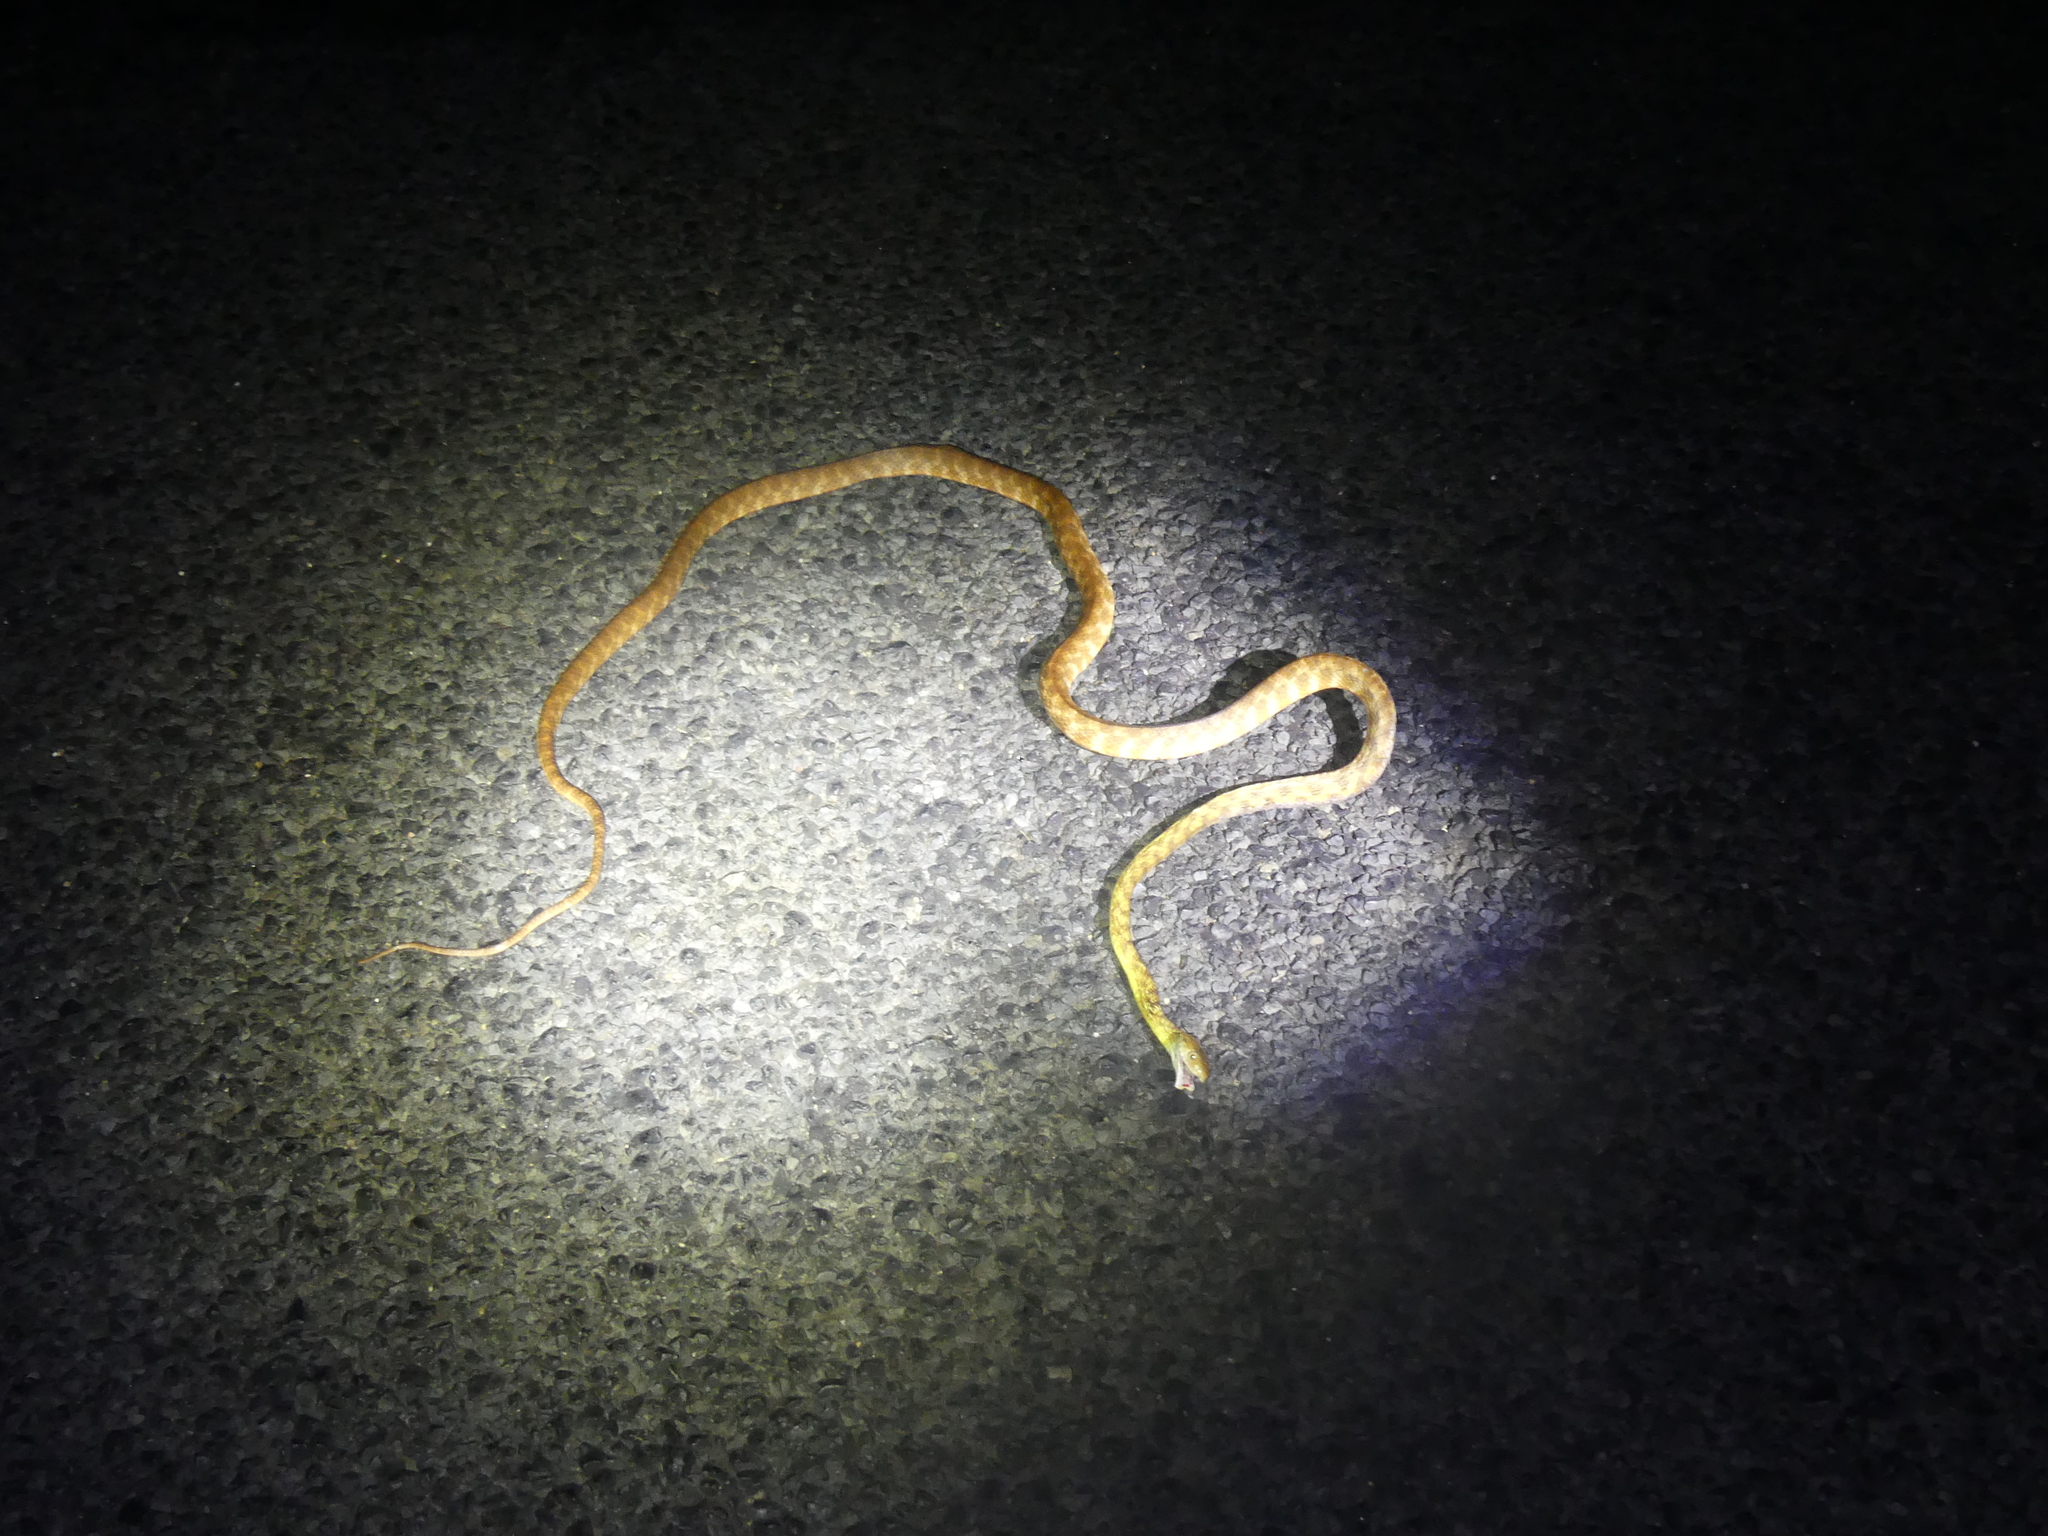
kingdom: Animalia
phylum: Chordata
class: Squamata
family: Colubridae
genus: Boiga
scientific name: Boiga irregularis
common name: Brown tree snake
